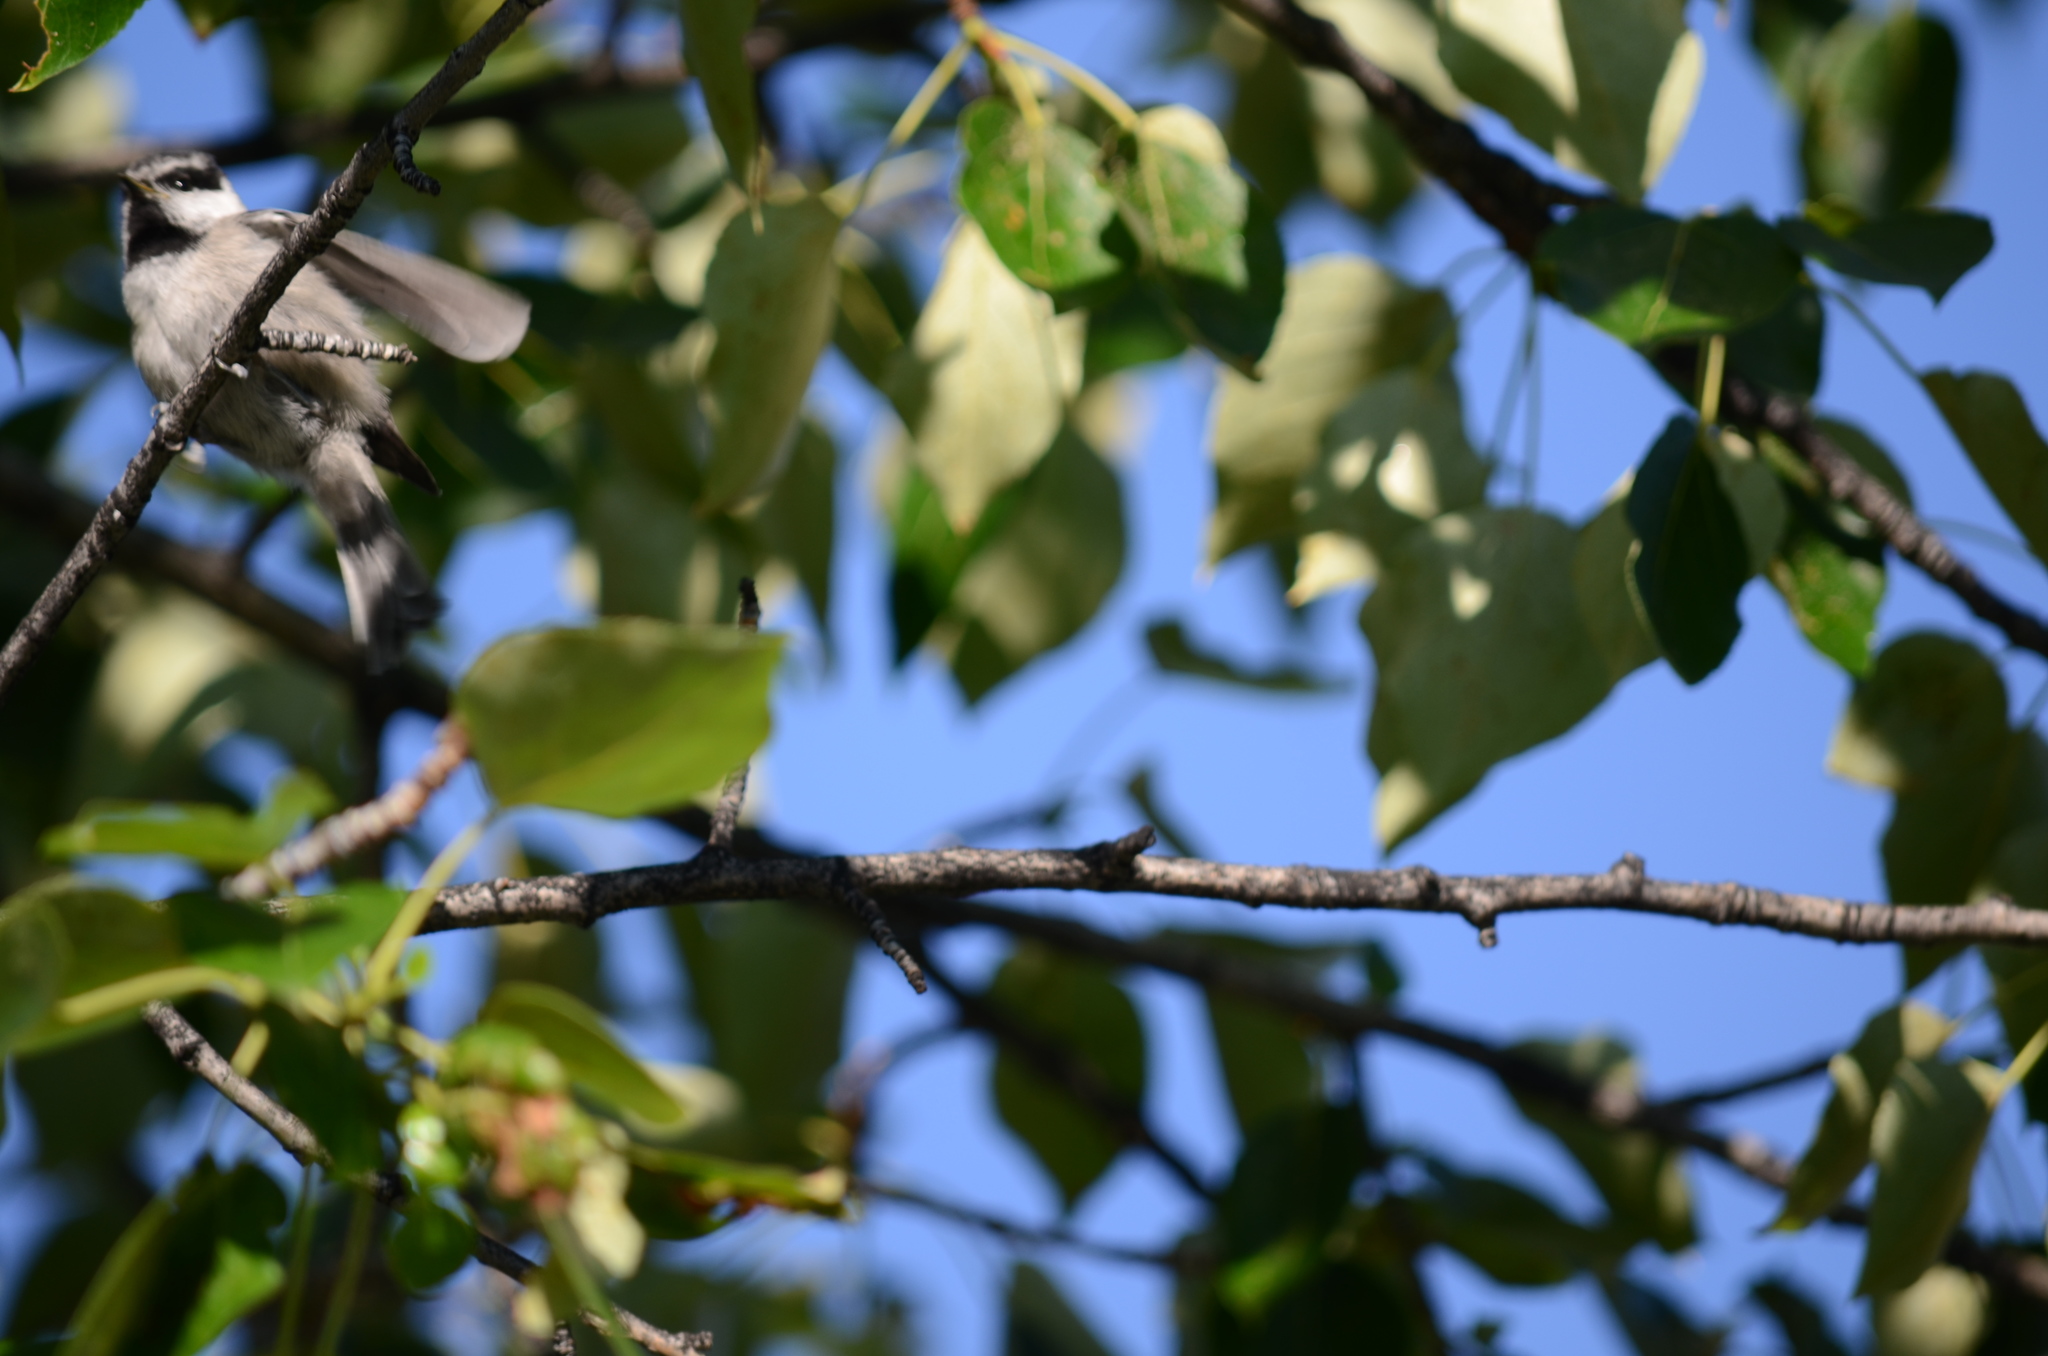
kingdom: Animalia
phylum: Chordata
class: Aves
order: Passeriformes
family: Paridae
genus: Poecile
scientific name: Poecile gambeli
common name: Mountain chickadee
